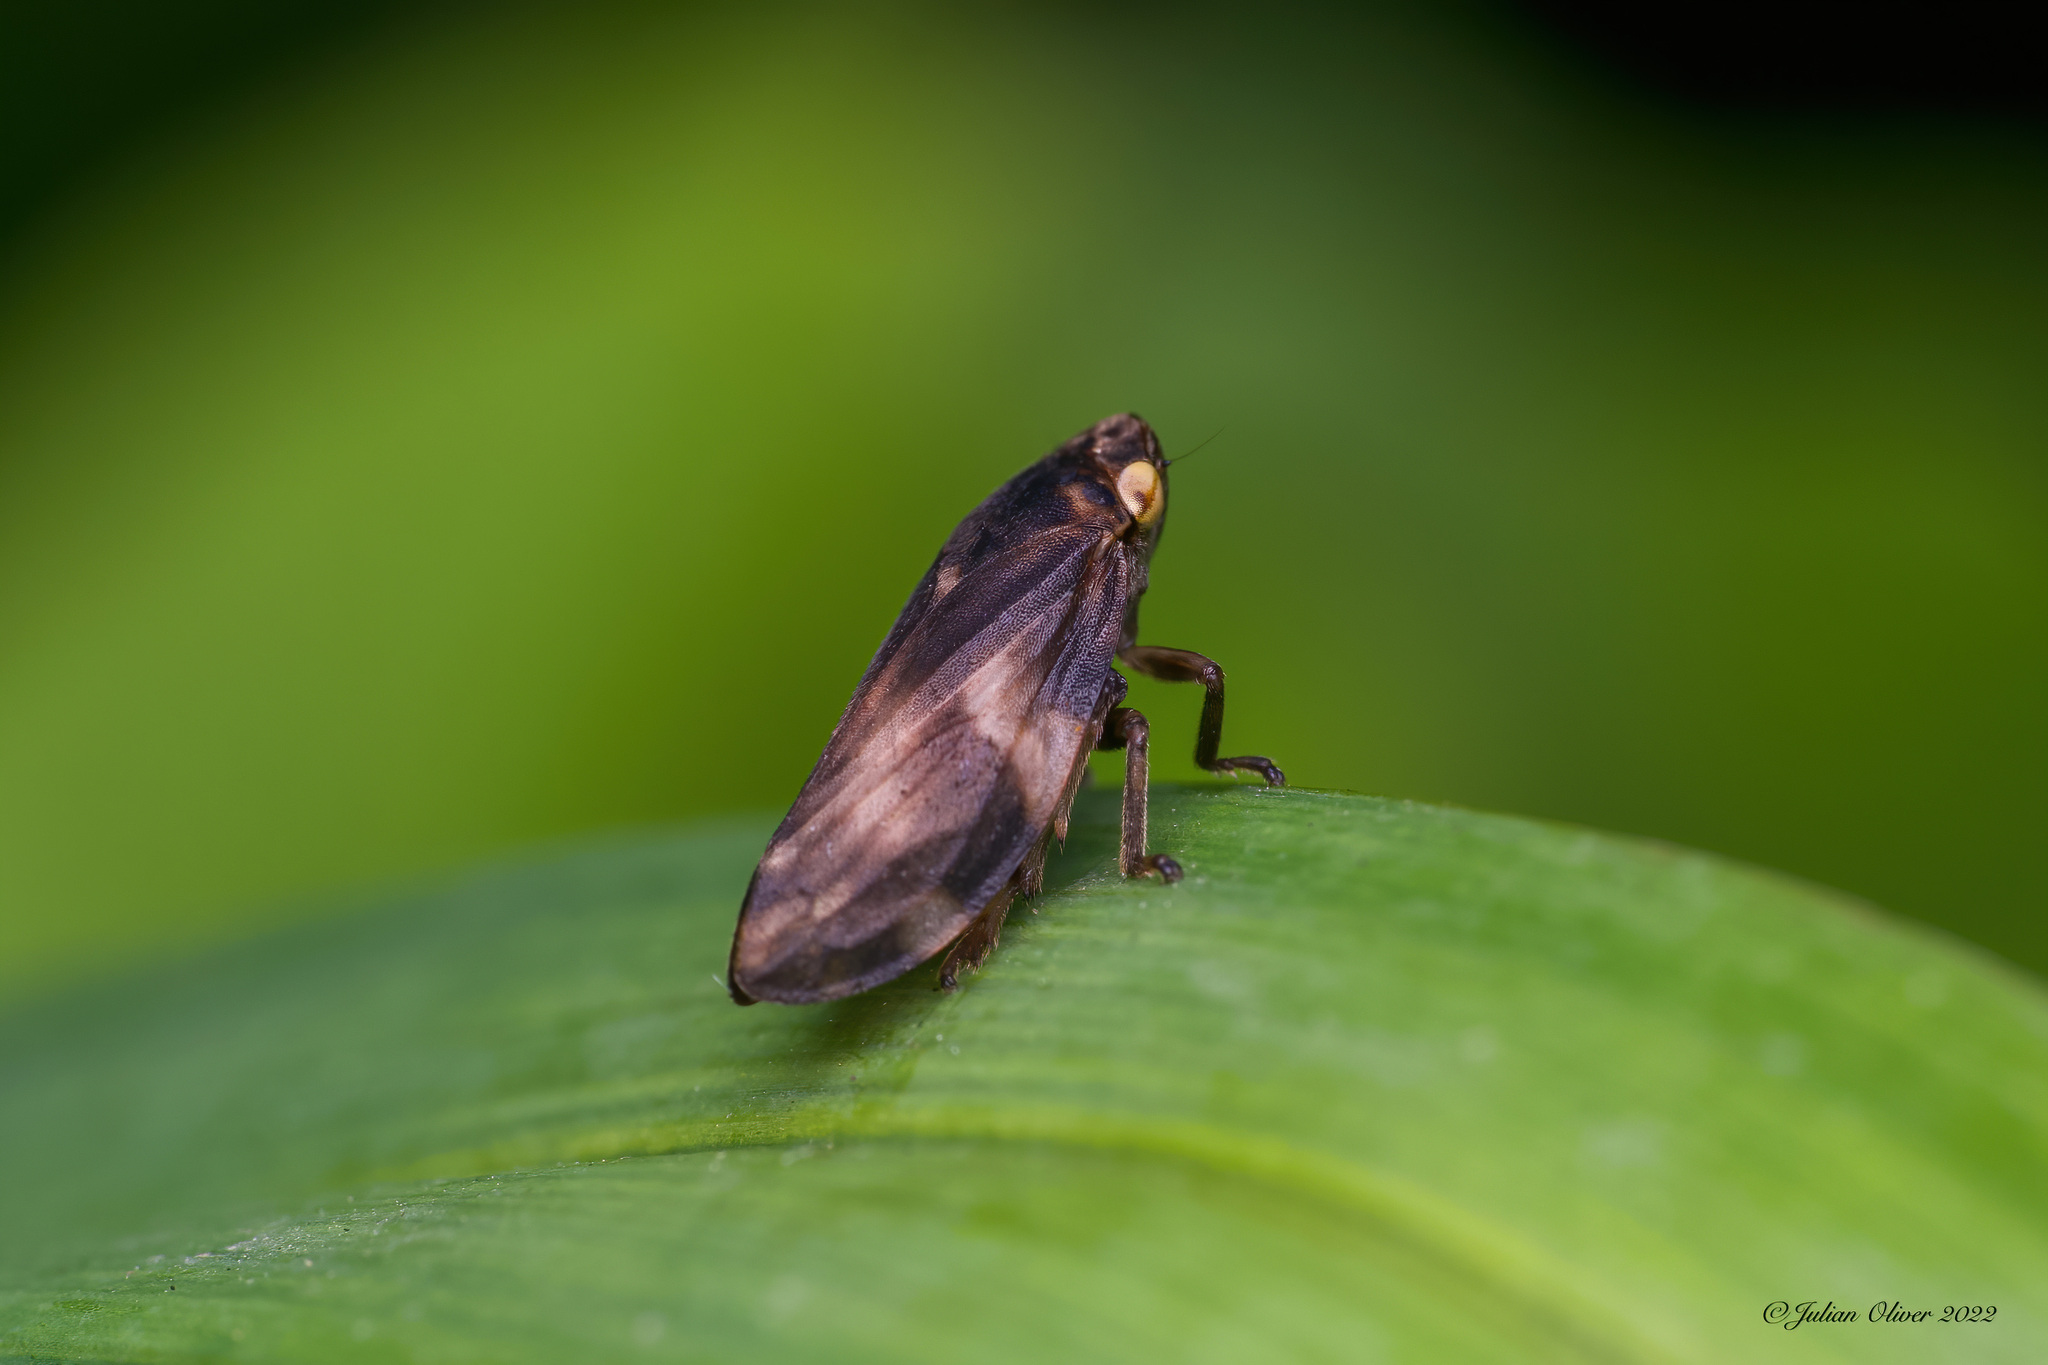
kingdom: Animalia
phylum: Arthropoda
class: Insecta
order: Hemiptera
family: Aphrophoridae
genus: Philaenus
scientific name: Philaenus spumarius
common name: Meadow spittlebug
